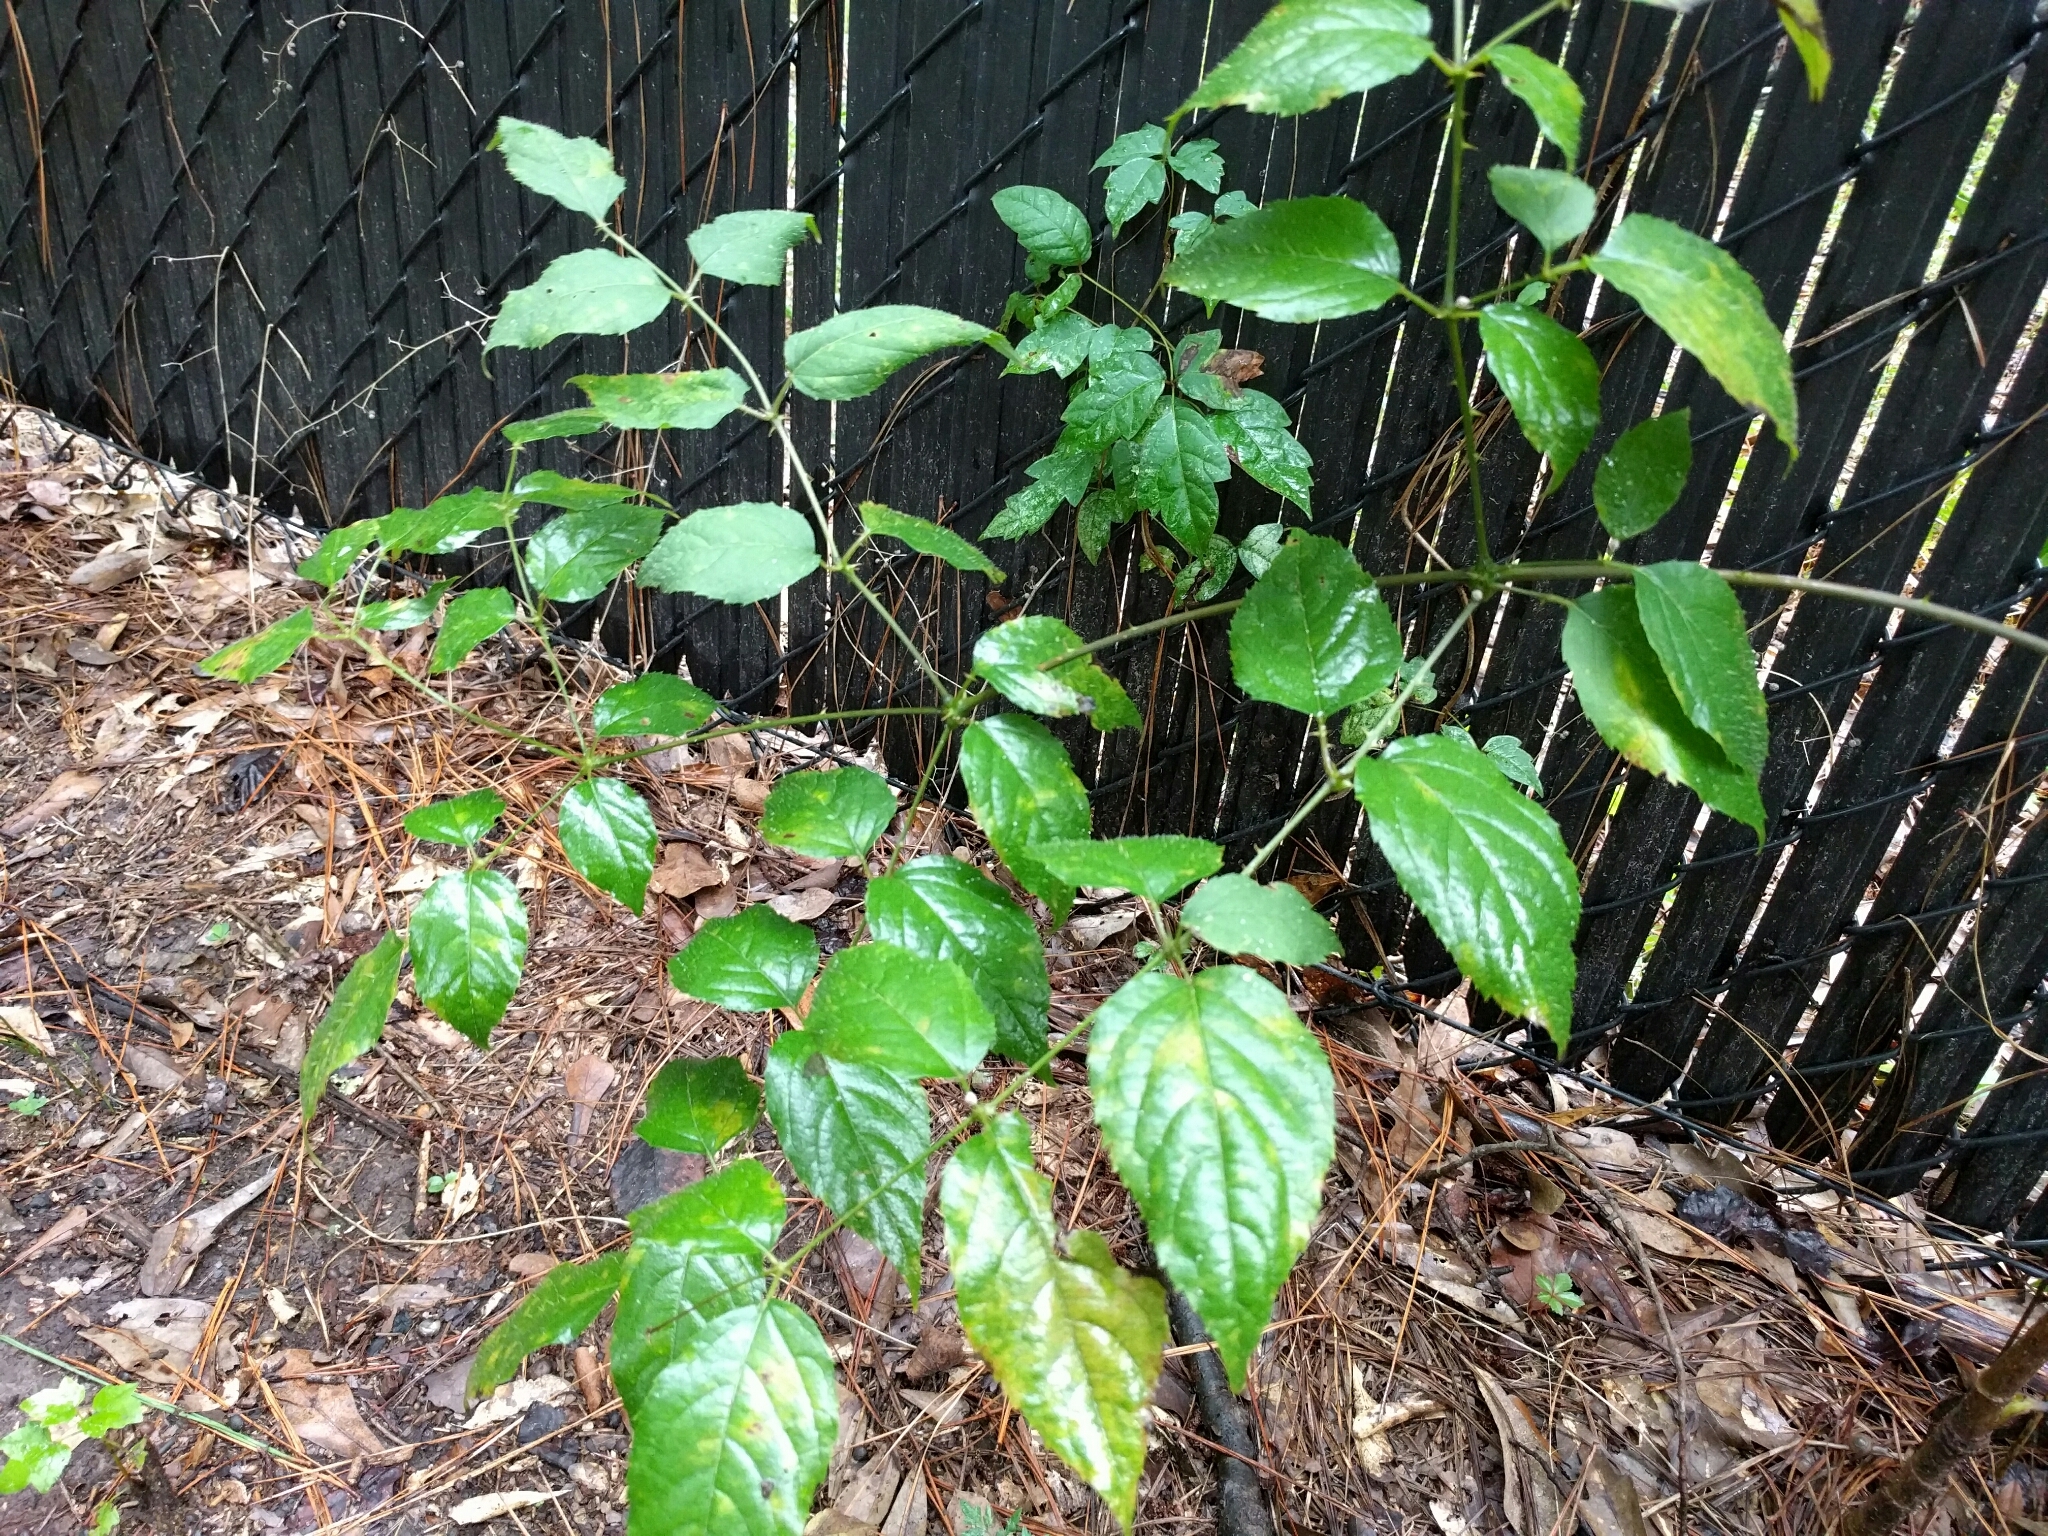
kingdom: Plantae
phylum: Tracheophyta
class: Magnoliopsida
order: Apiales
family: Araliaceae
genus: Aralia
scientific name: Aralia spinosa
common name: Hercules'-club
